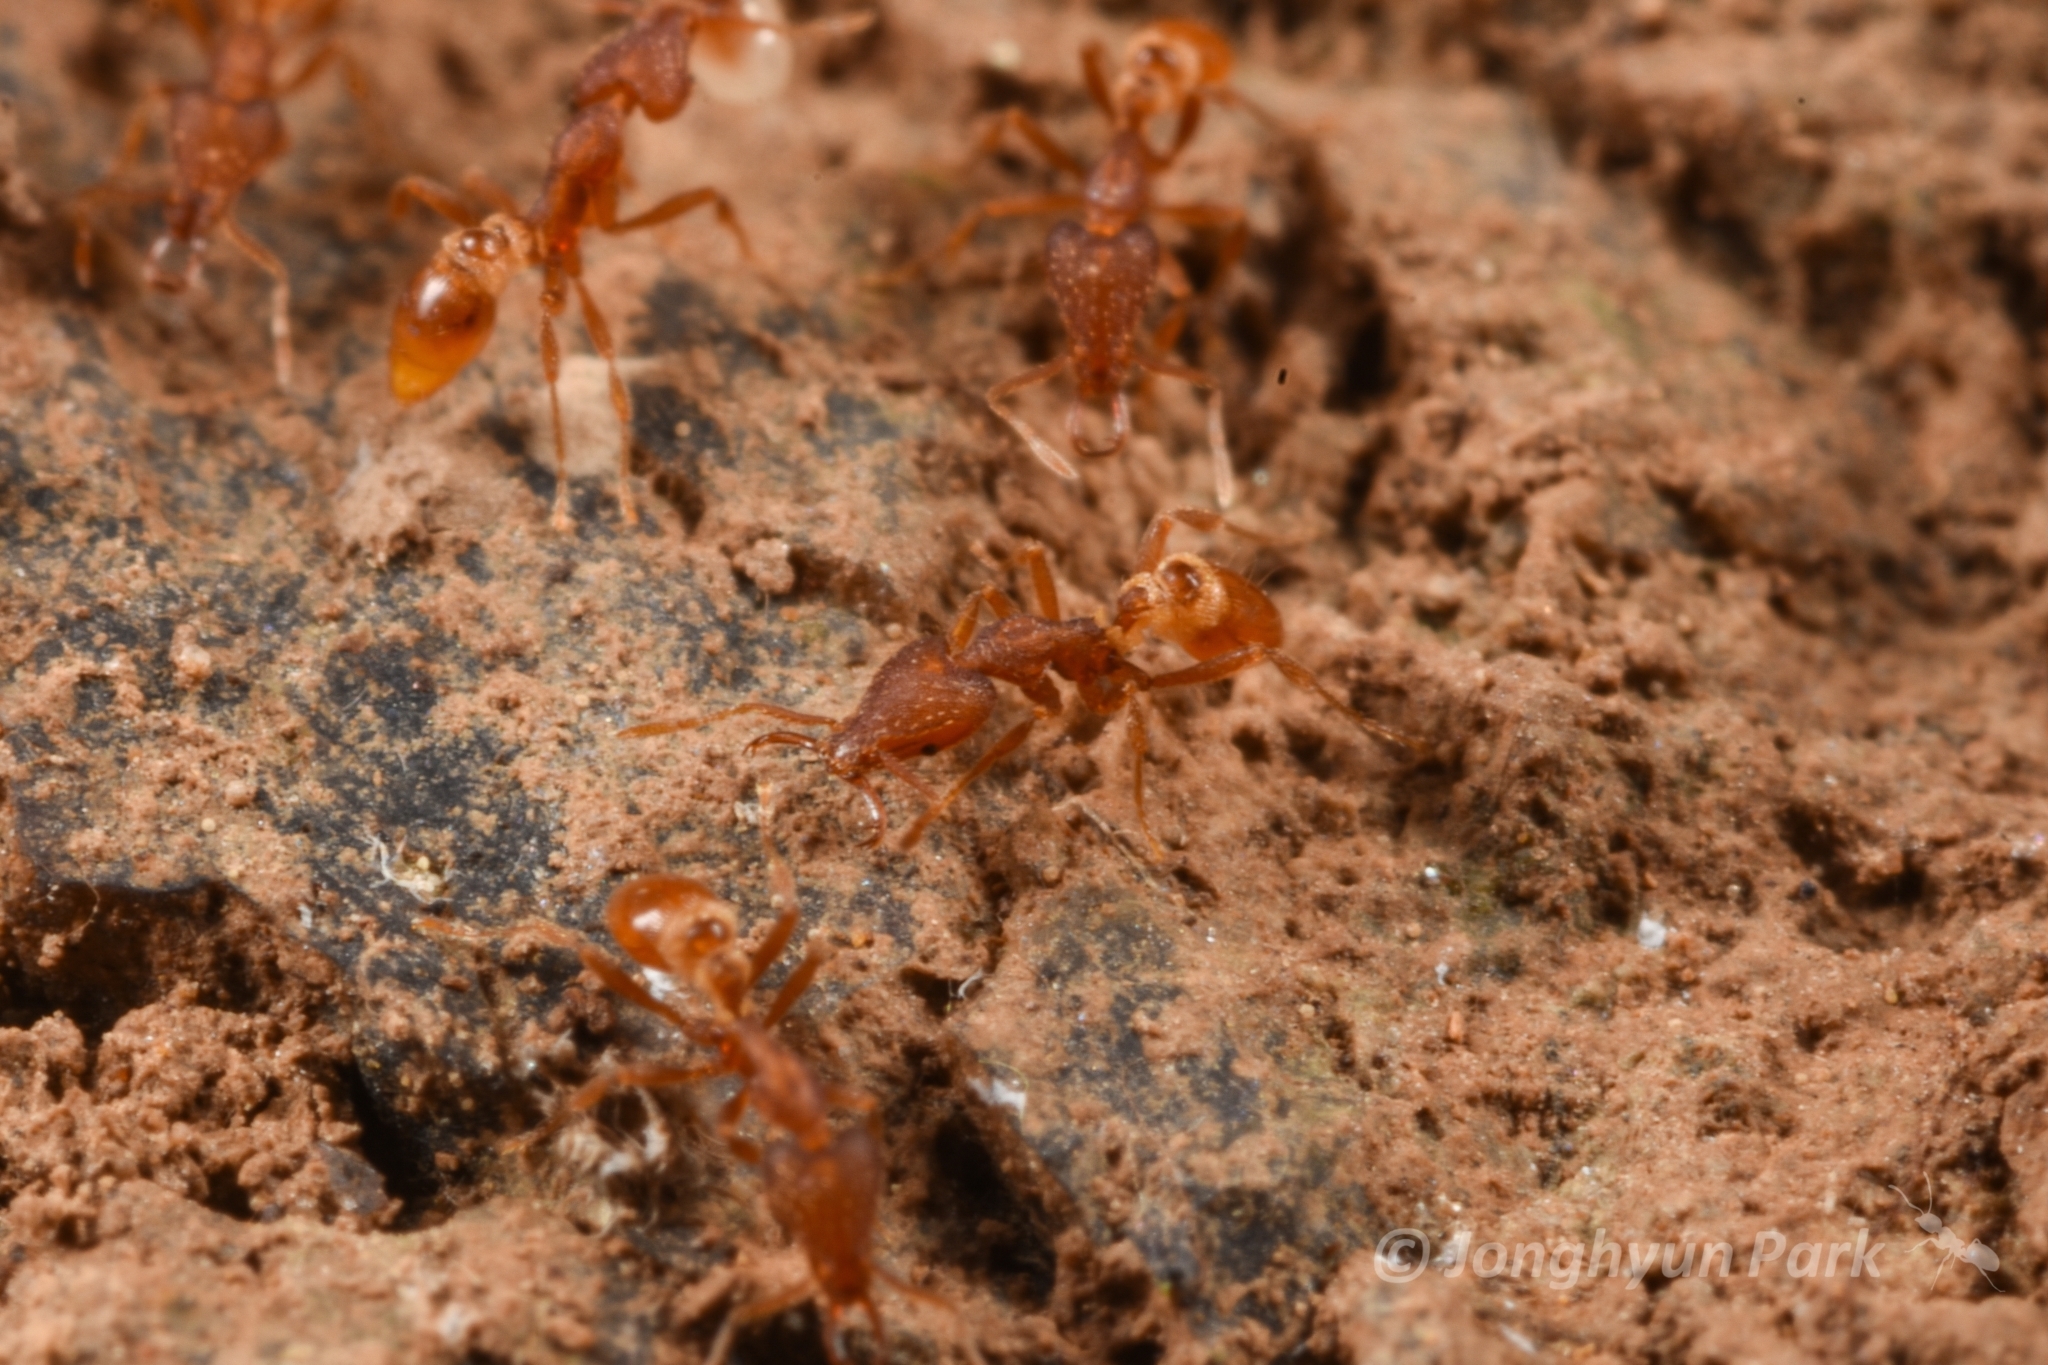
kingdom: Animalia
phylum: Arthropoda
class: Insecta
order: Hymenoptera
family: Formicidae
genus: Strumigenys
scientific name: Strumigenys lewisi
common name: Ant
